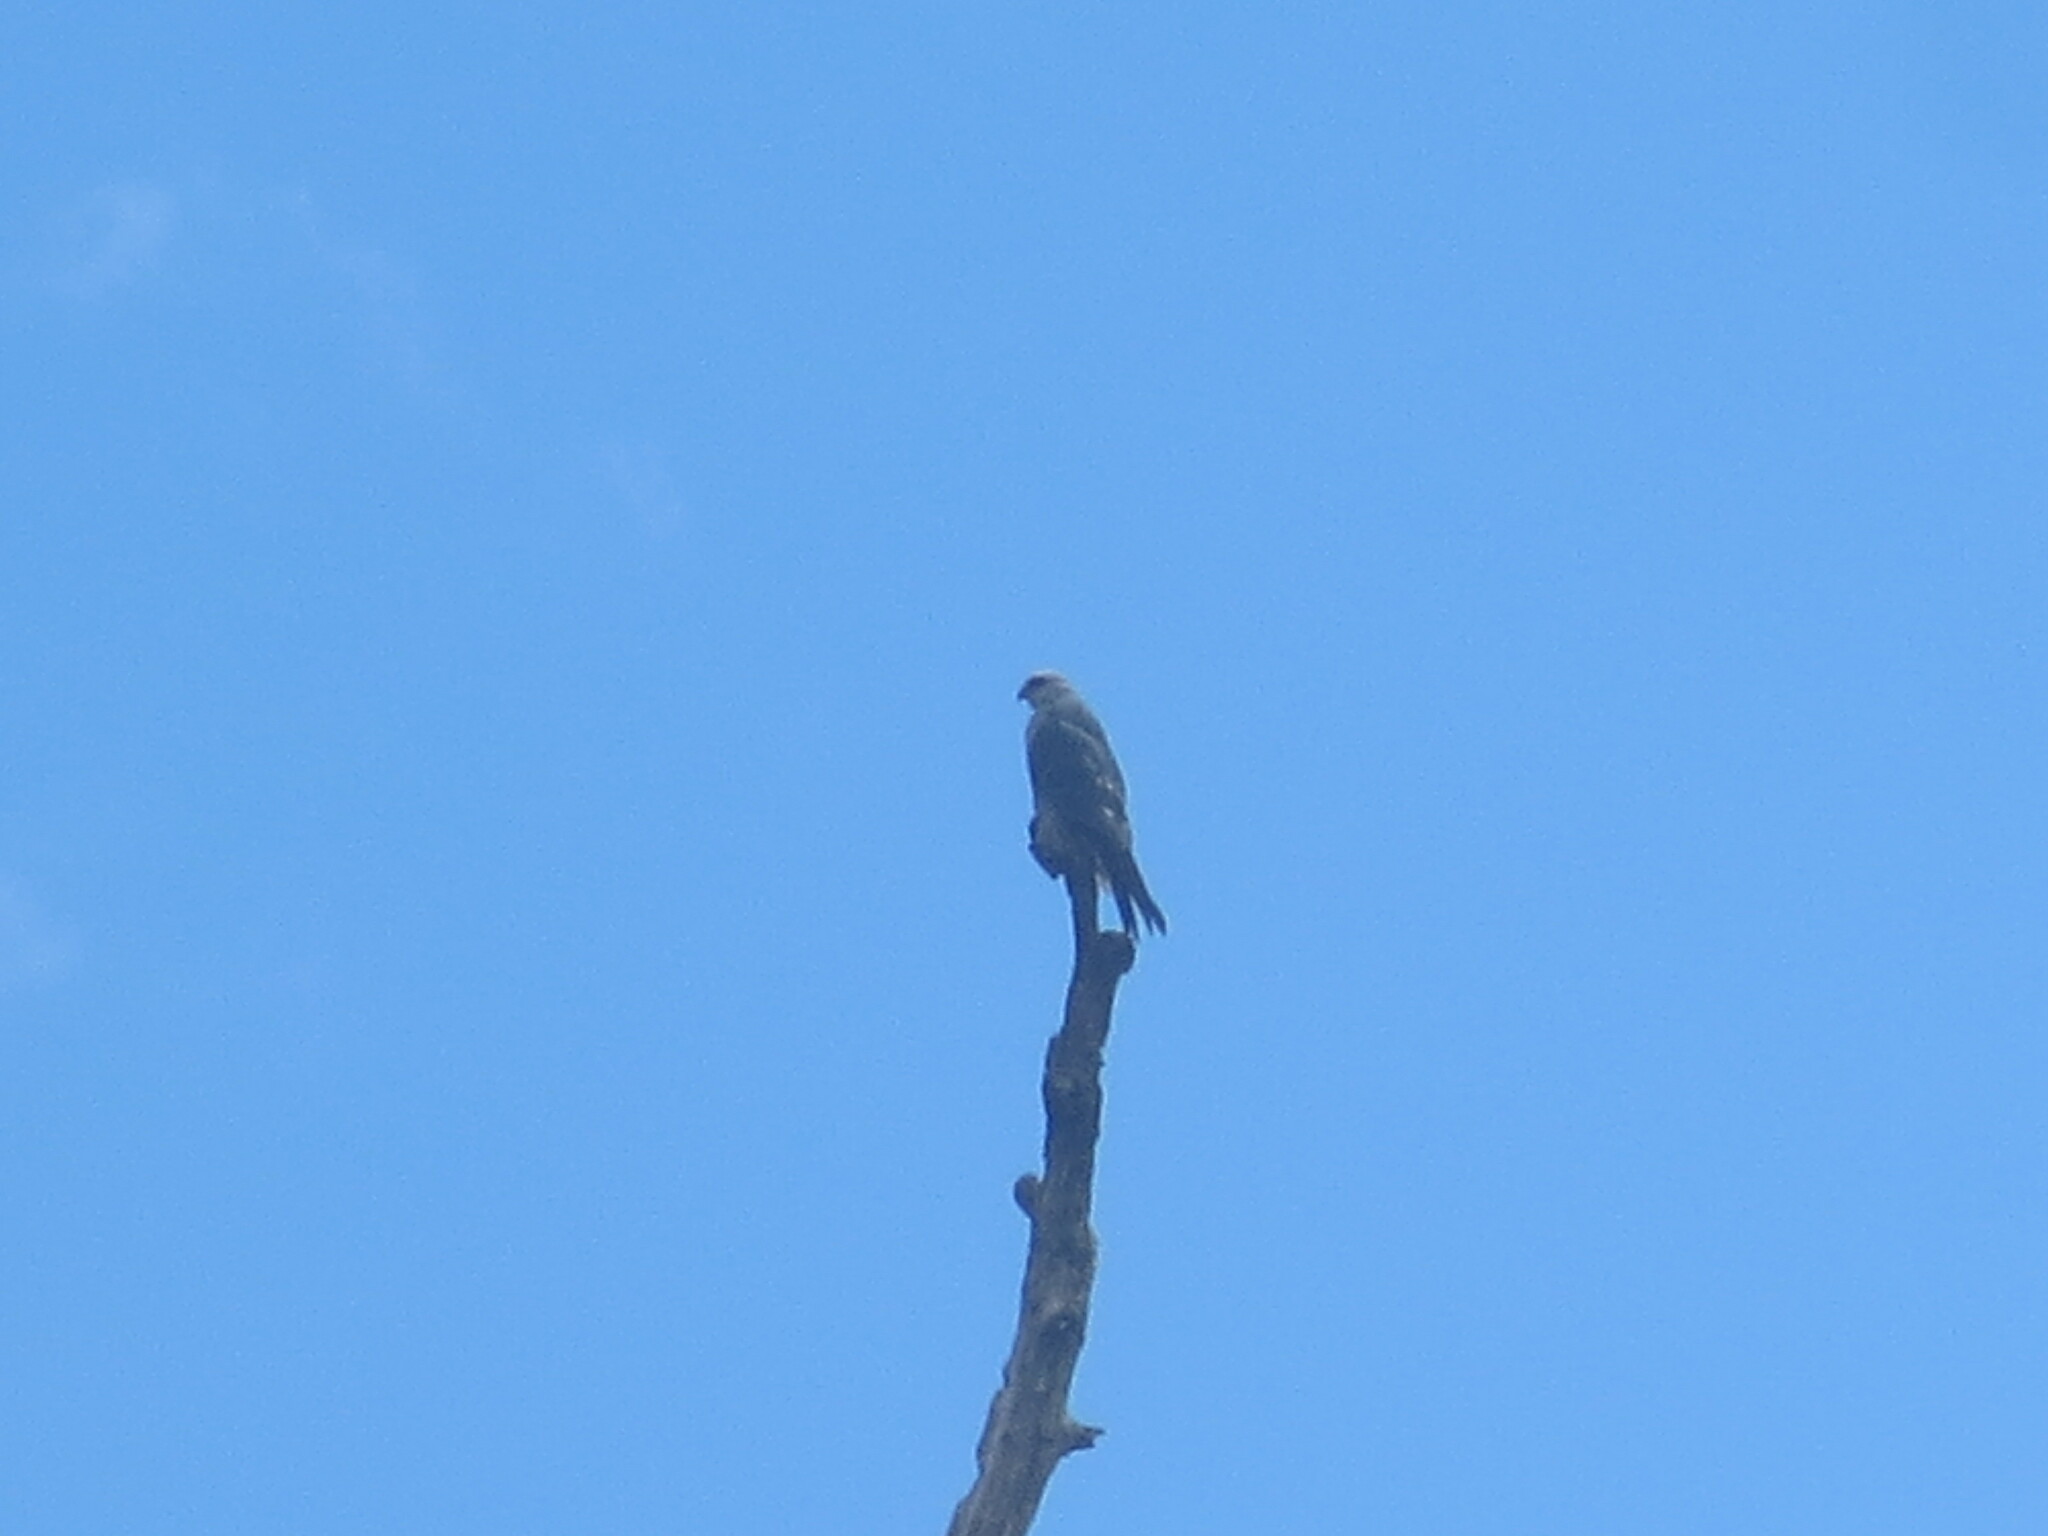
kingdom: Animalia
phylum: Chordata
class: Aves
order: Accipitriformes
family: Accipitridae
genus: Ictinia
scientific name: Ictinia mississippiensis
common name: Mississippi kite
